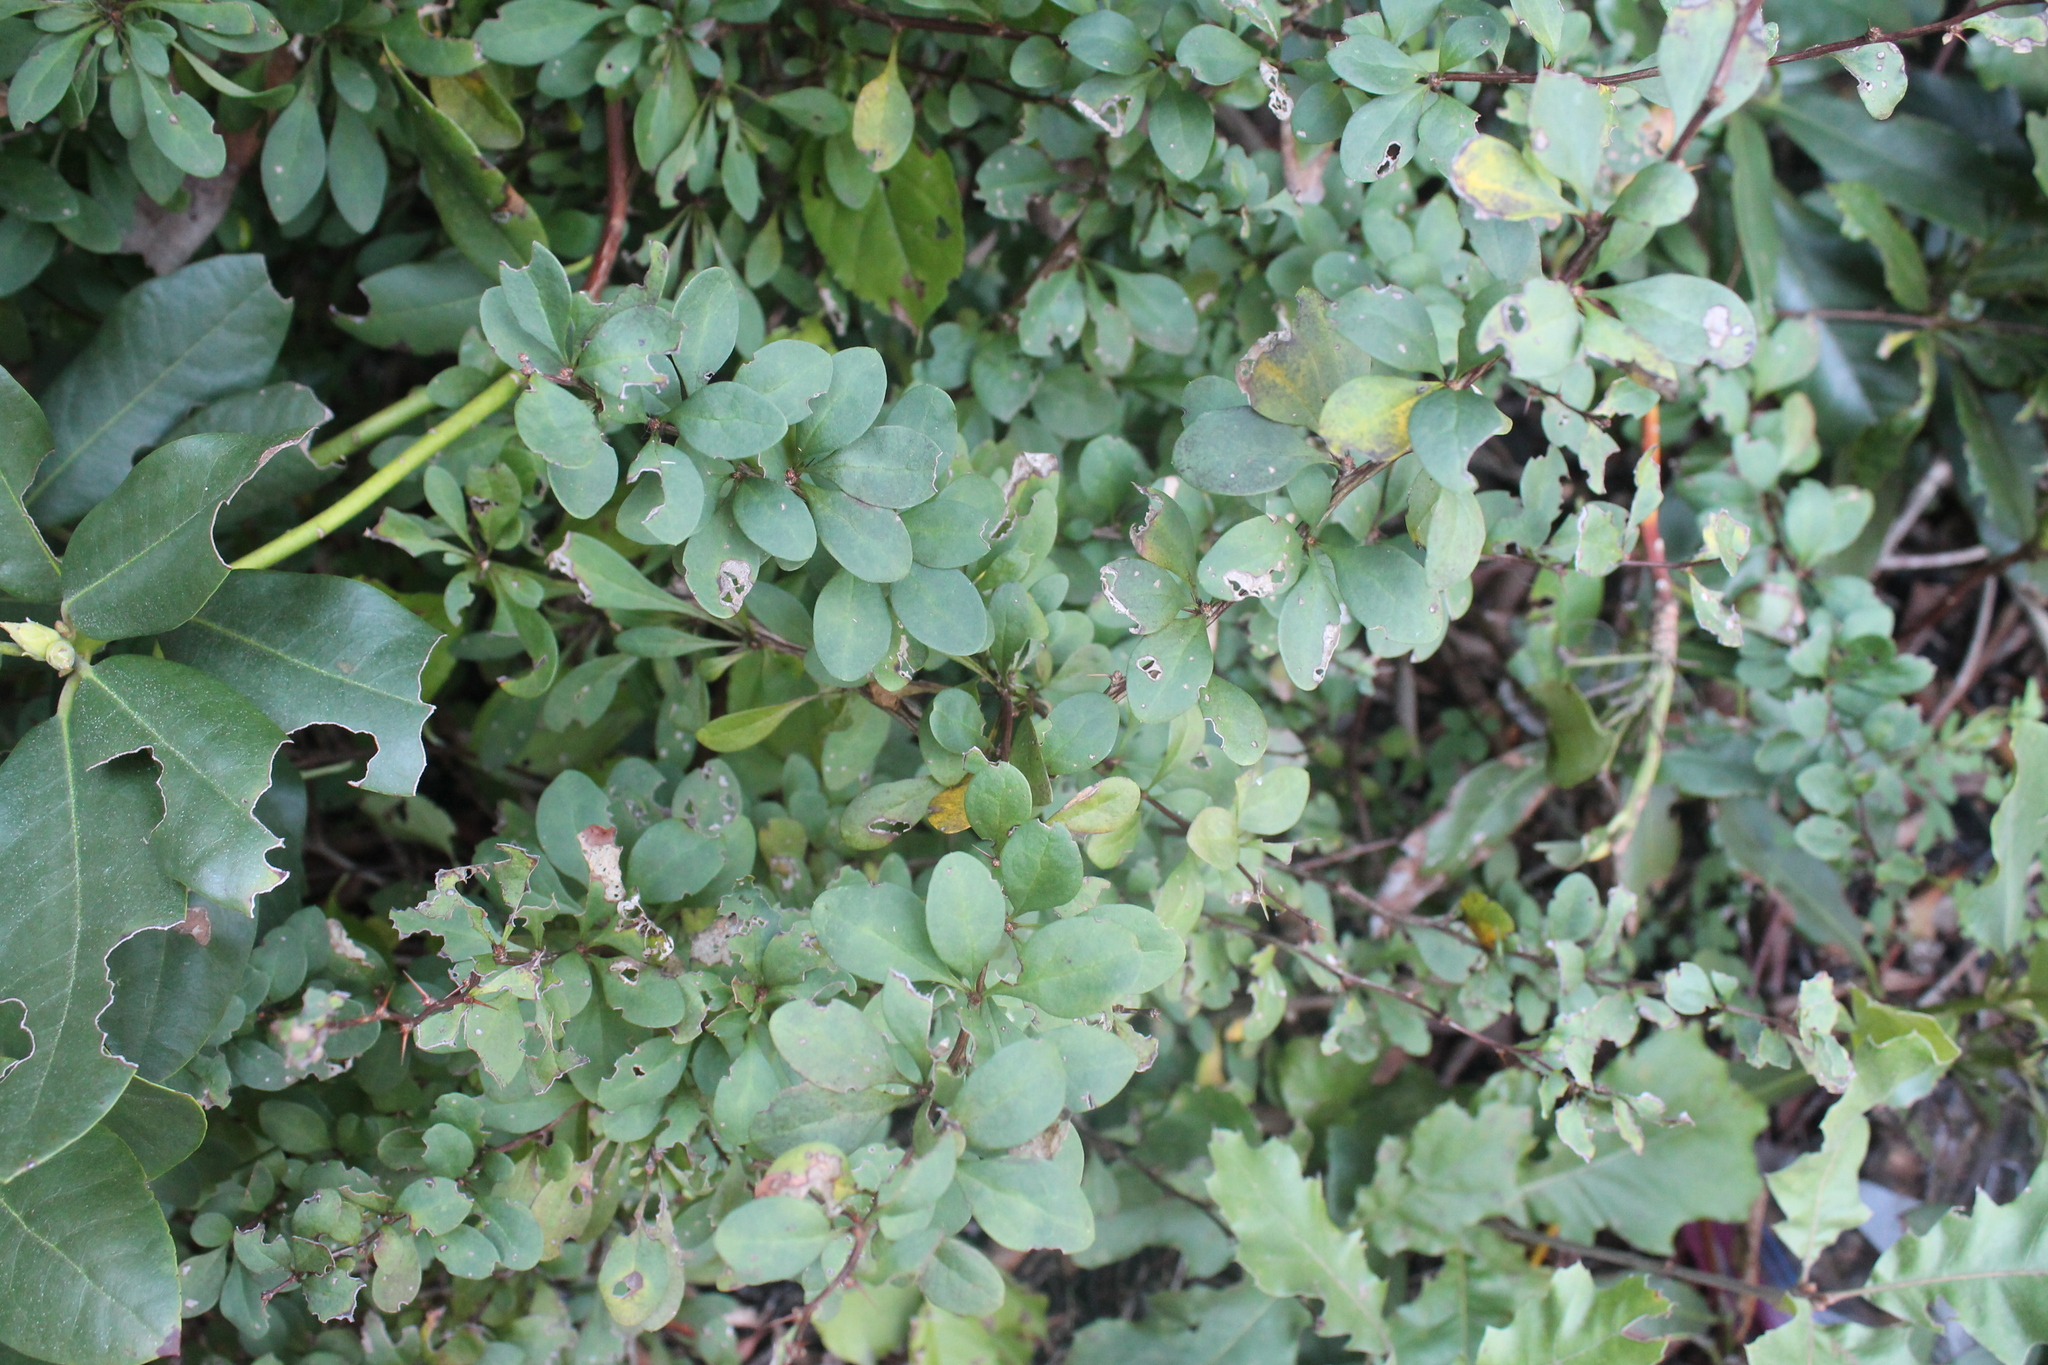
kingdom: Plantae
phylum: Tracheophyta
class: Magnoliopsida
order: Ranunculales
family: Berberidaceae
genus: Berberis
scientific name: Berberis thunbergii
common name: Japanese barberry
